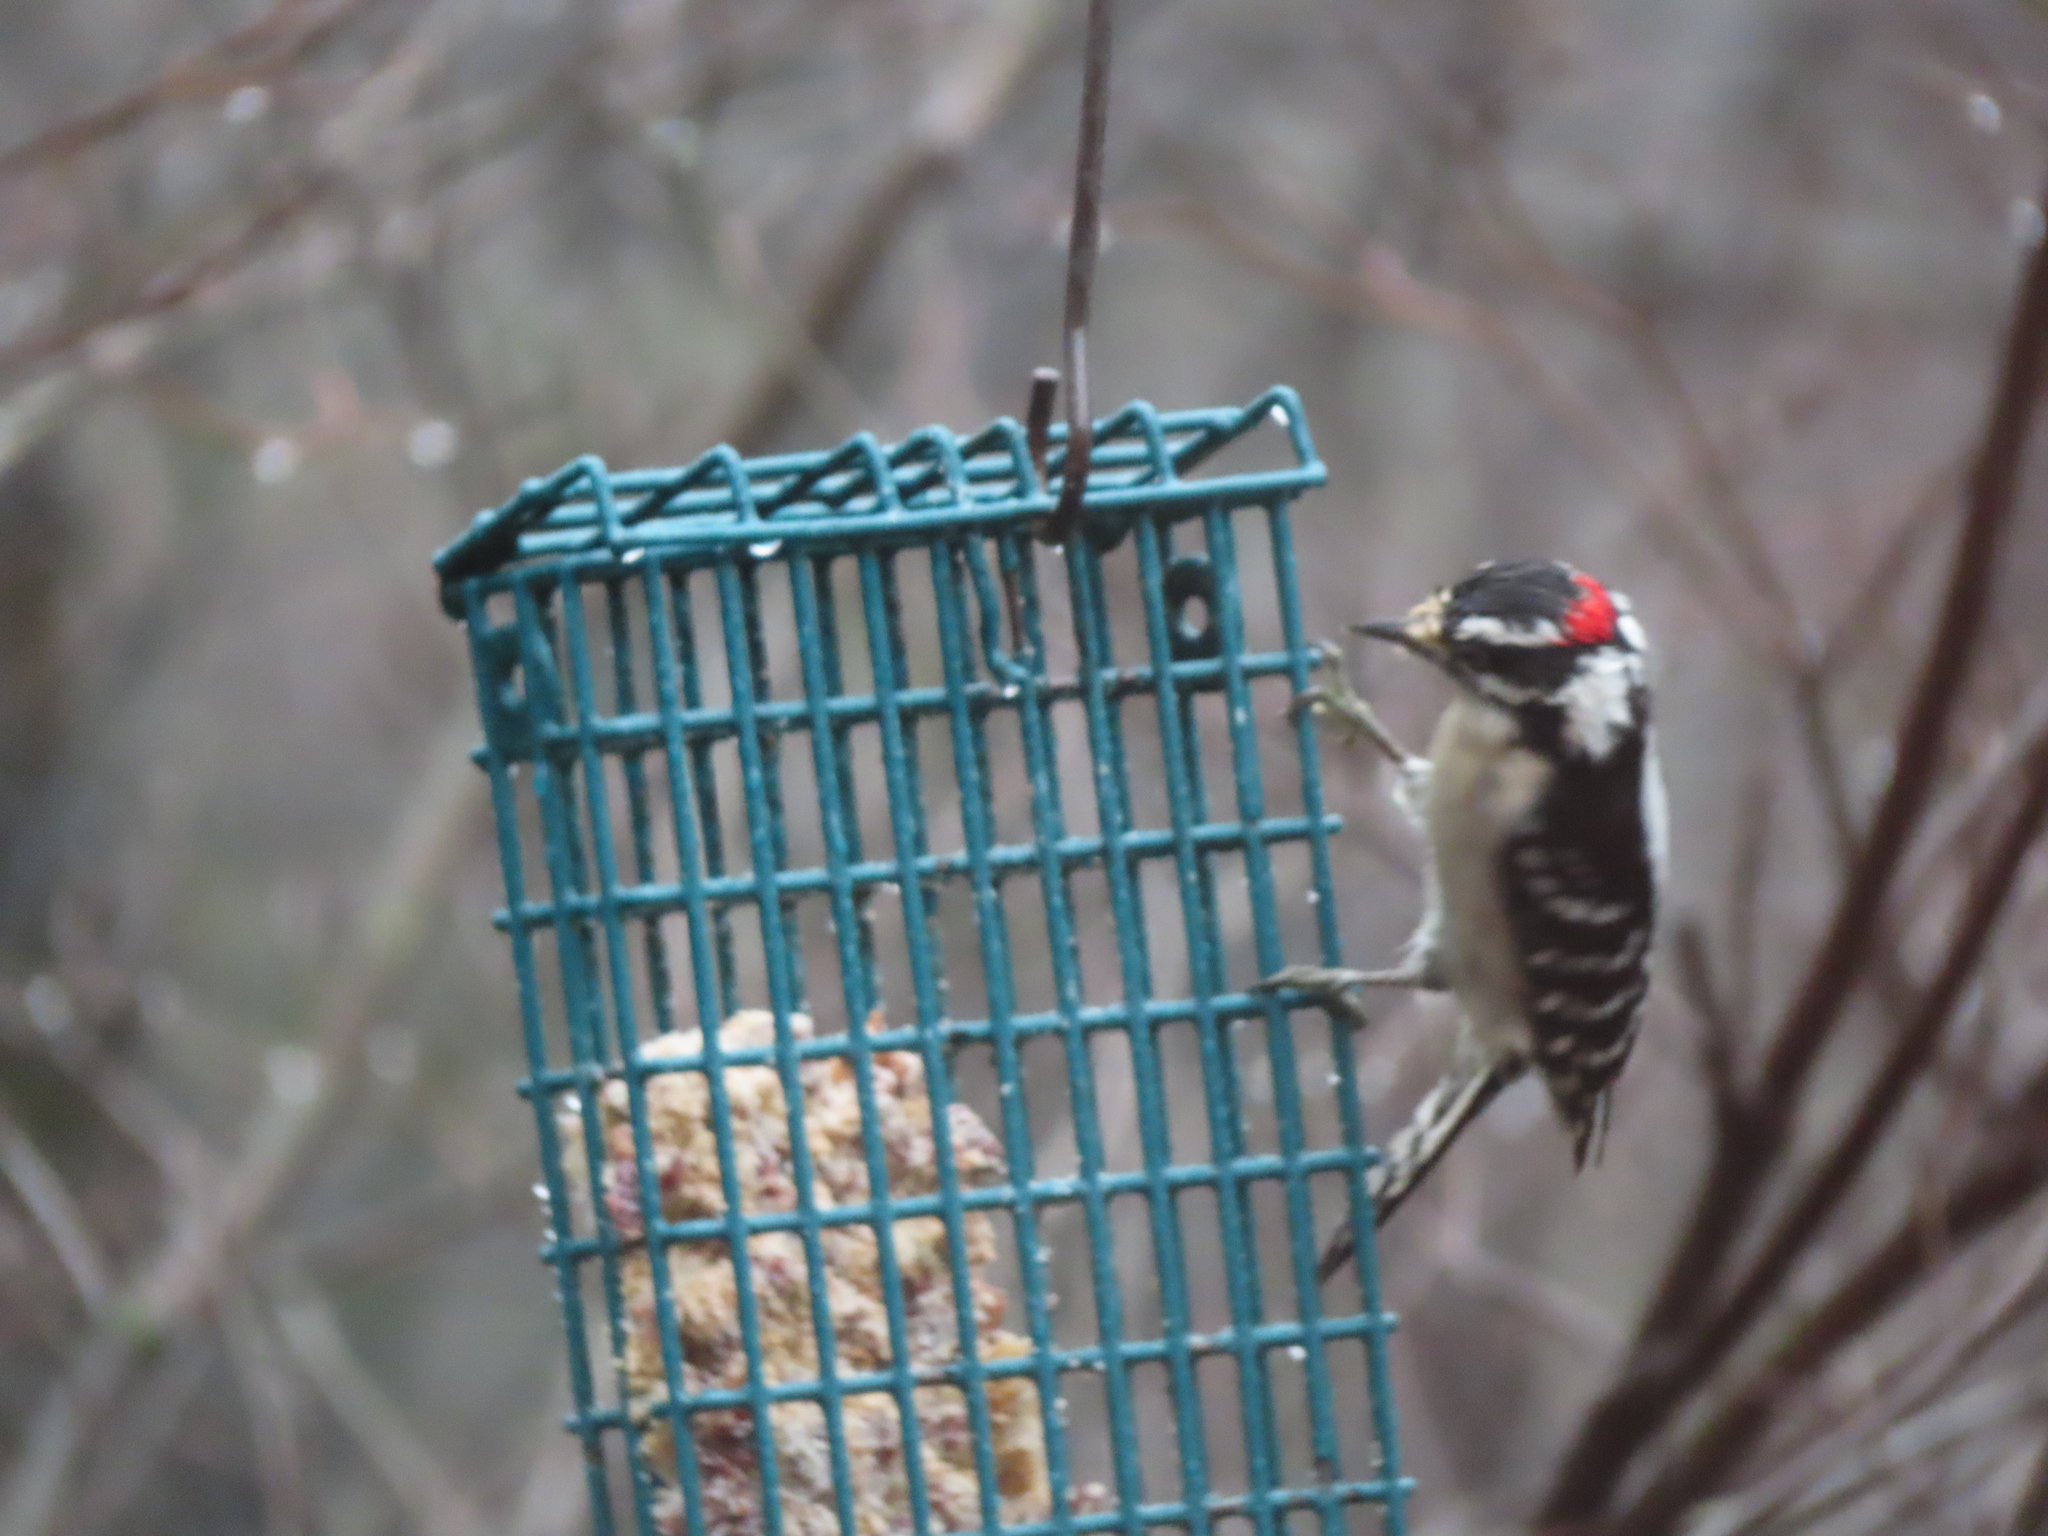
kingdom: Animalia
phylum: Chordata
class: Aves
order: Piciformes
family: Picidae
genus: Dryobates
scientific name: Dryobates pubescens
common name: Downy woodpecker
